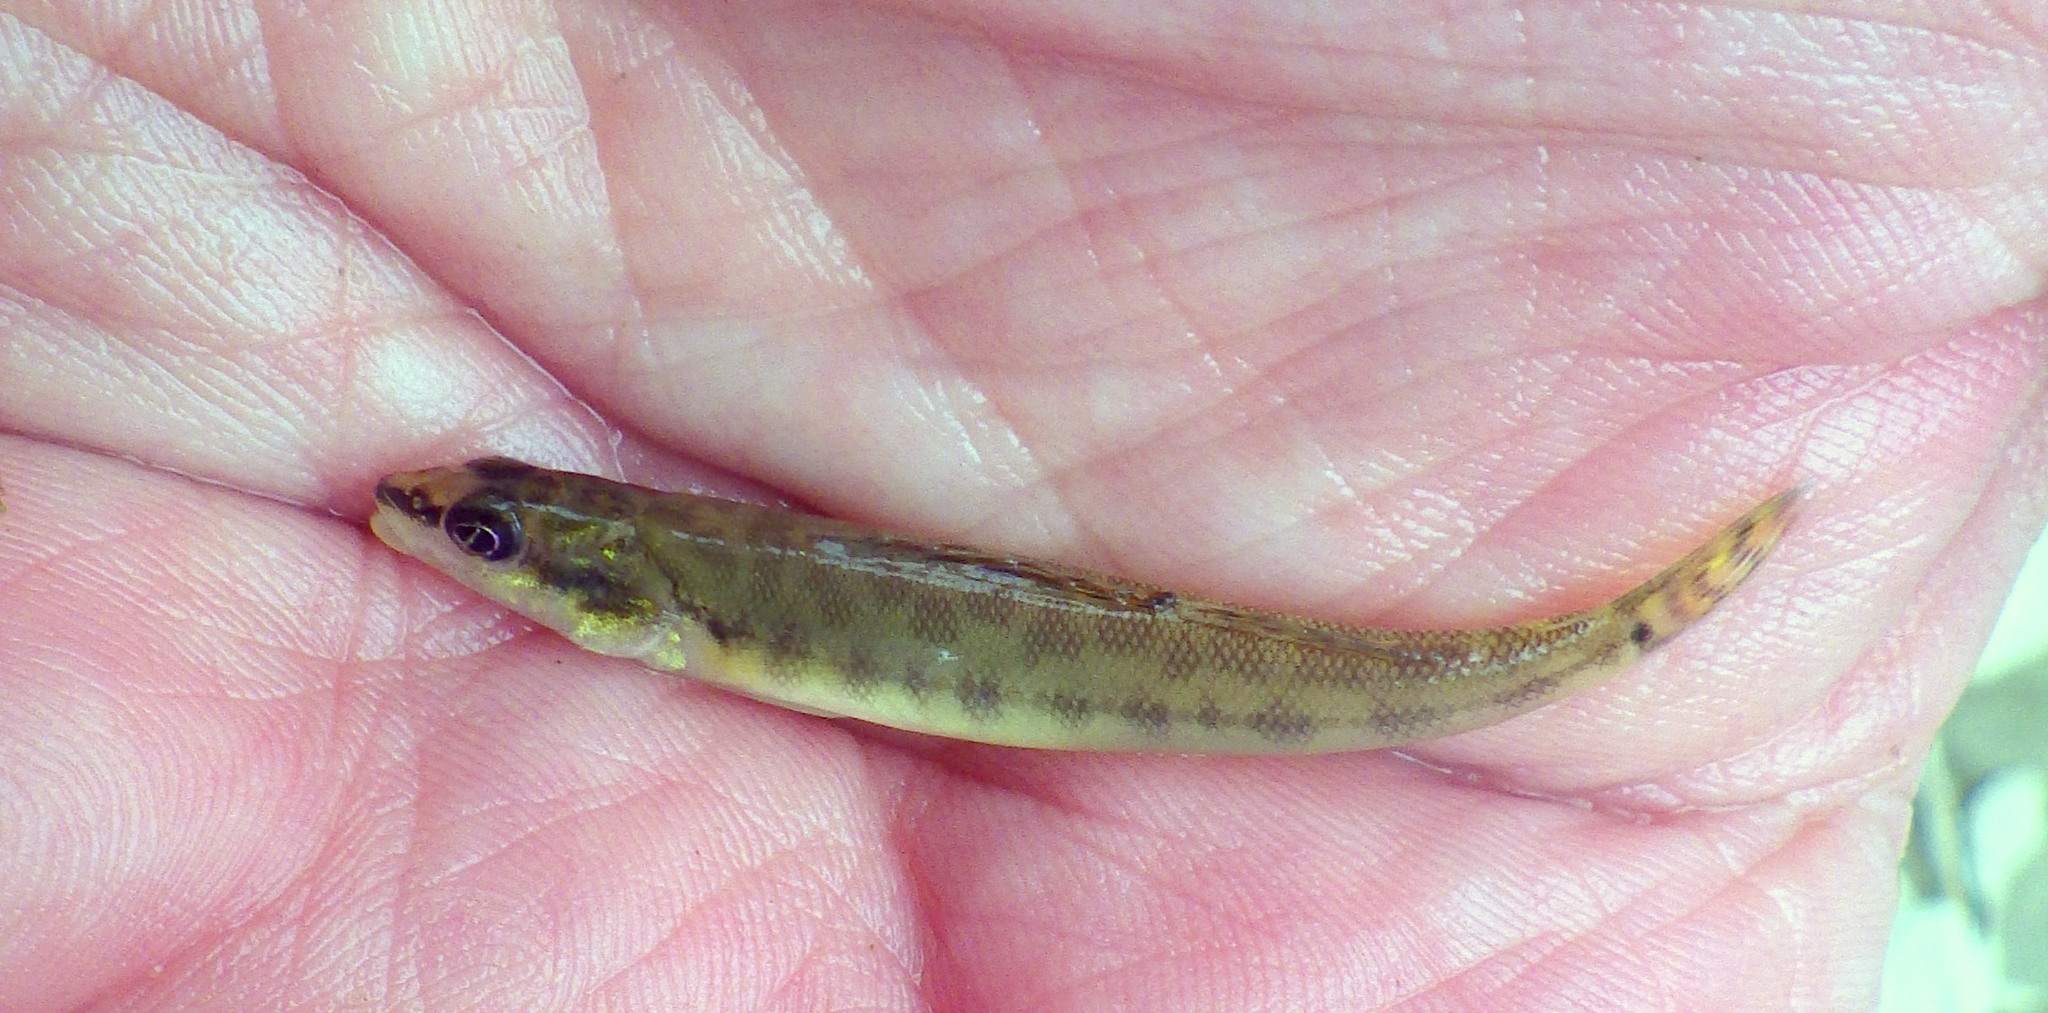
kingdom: Animalia
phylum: Chordata
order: Perciformes
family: Percidae
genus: Percina
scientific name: Percina phoxocephala
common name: Slenderhead darter
